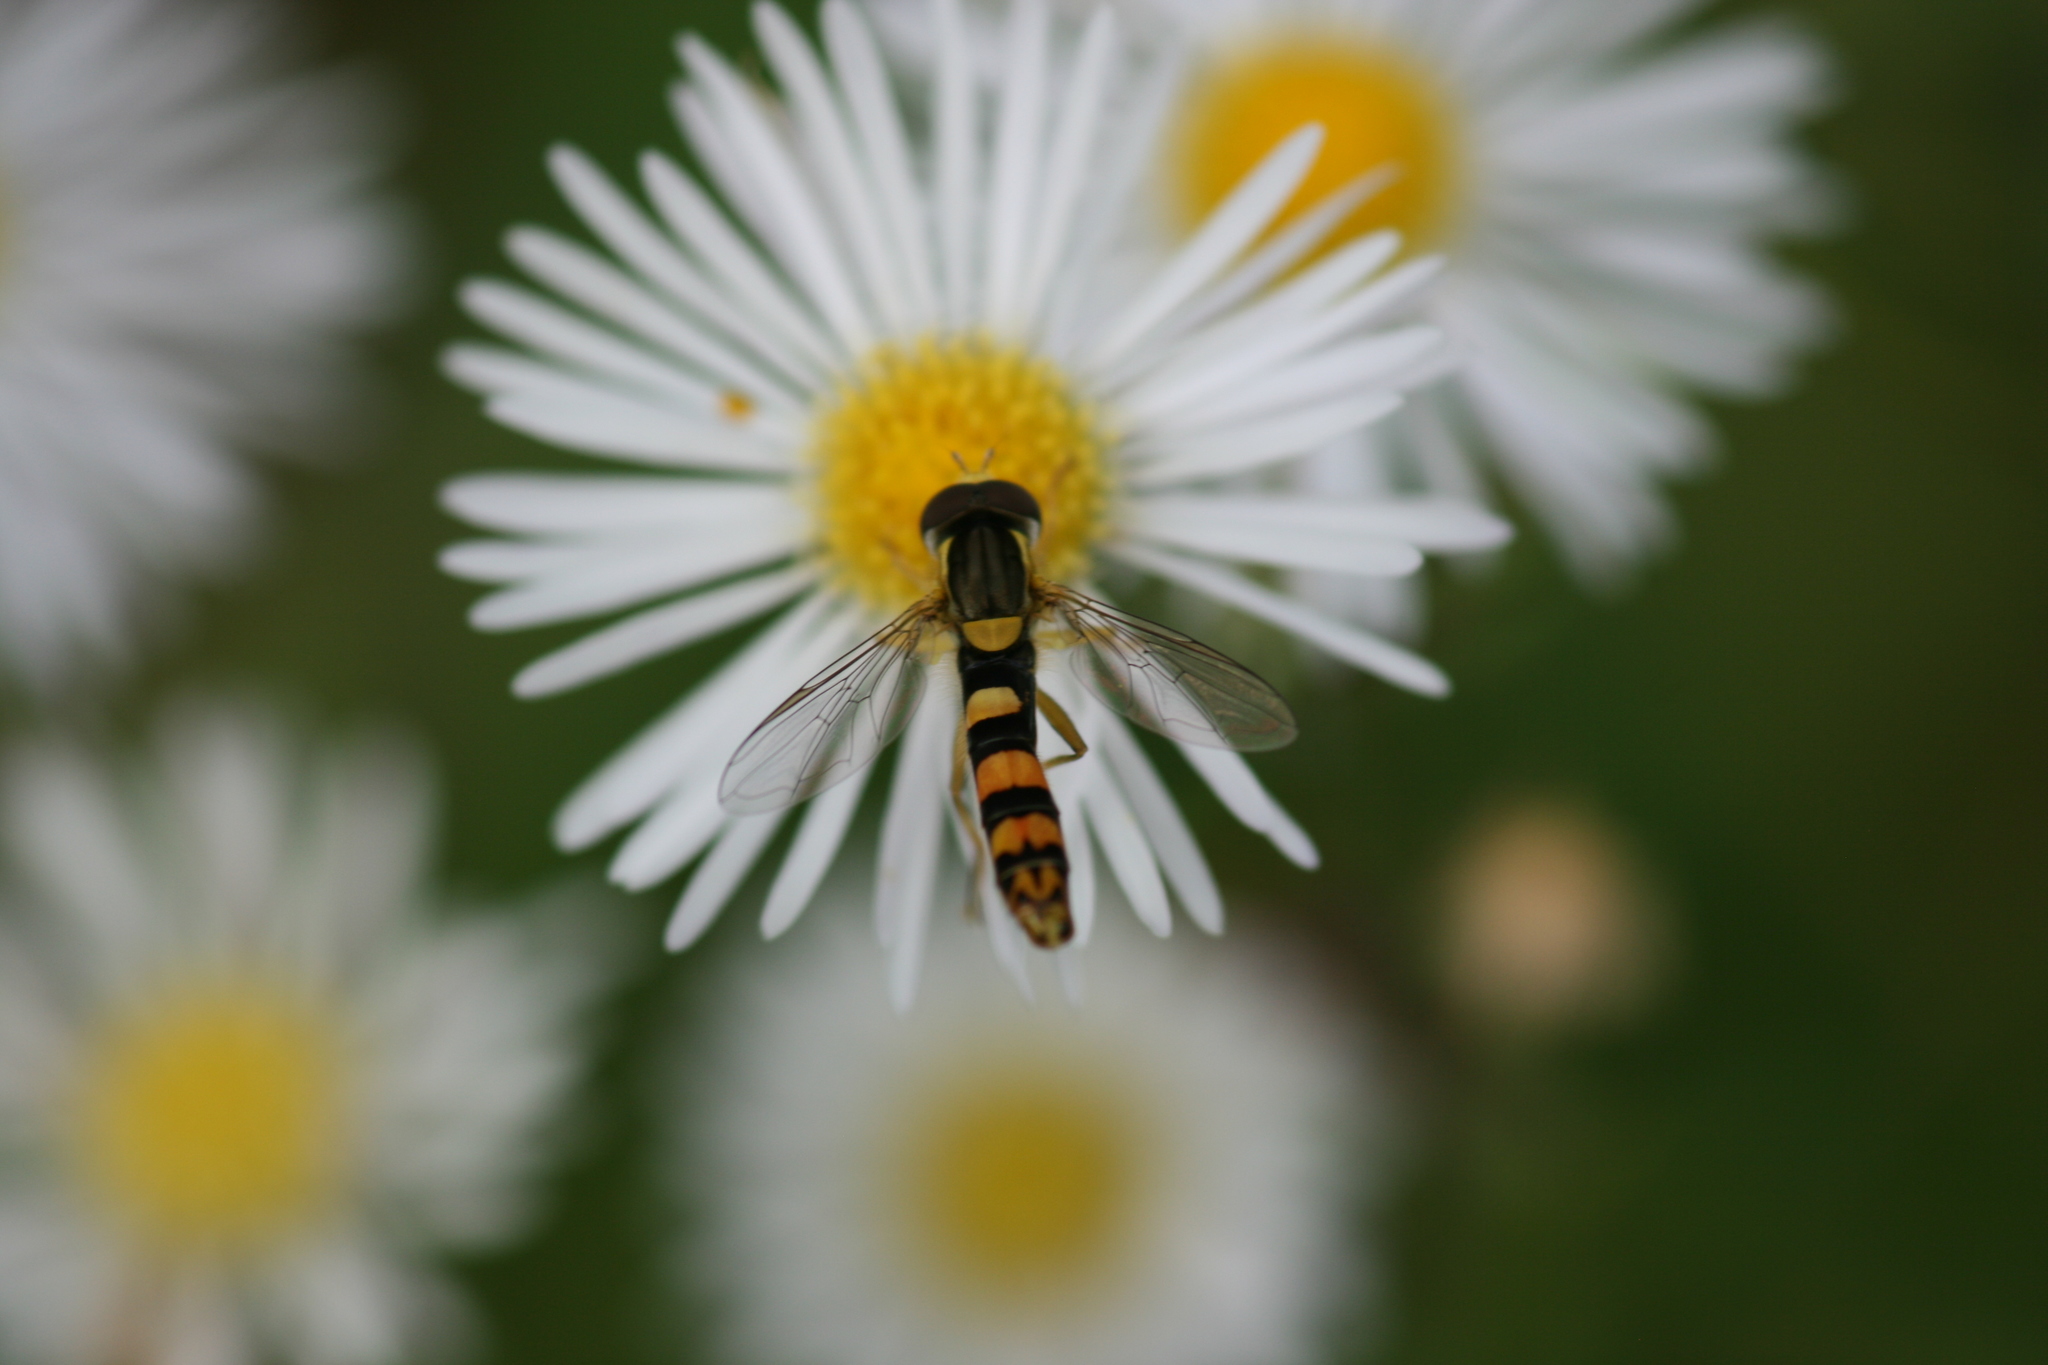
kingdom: Animalia
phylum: Arthropoda
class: Insecta
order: Diptera
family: Syrphidae
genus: Sphaerophoria
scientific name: Sphaerophoria scripta
